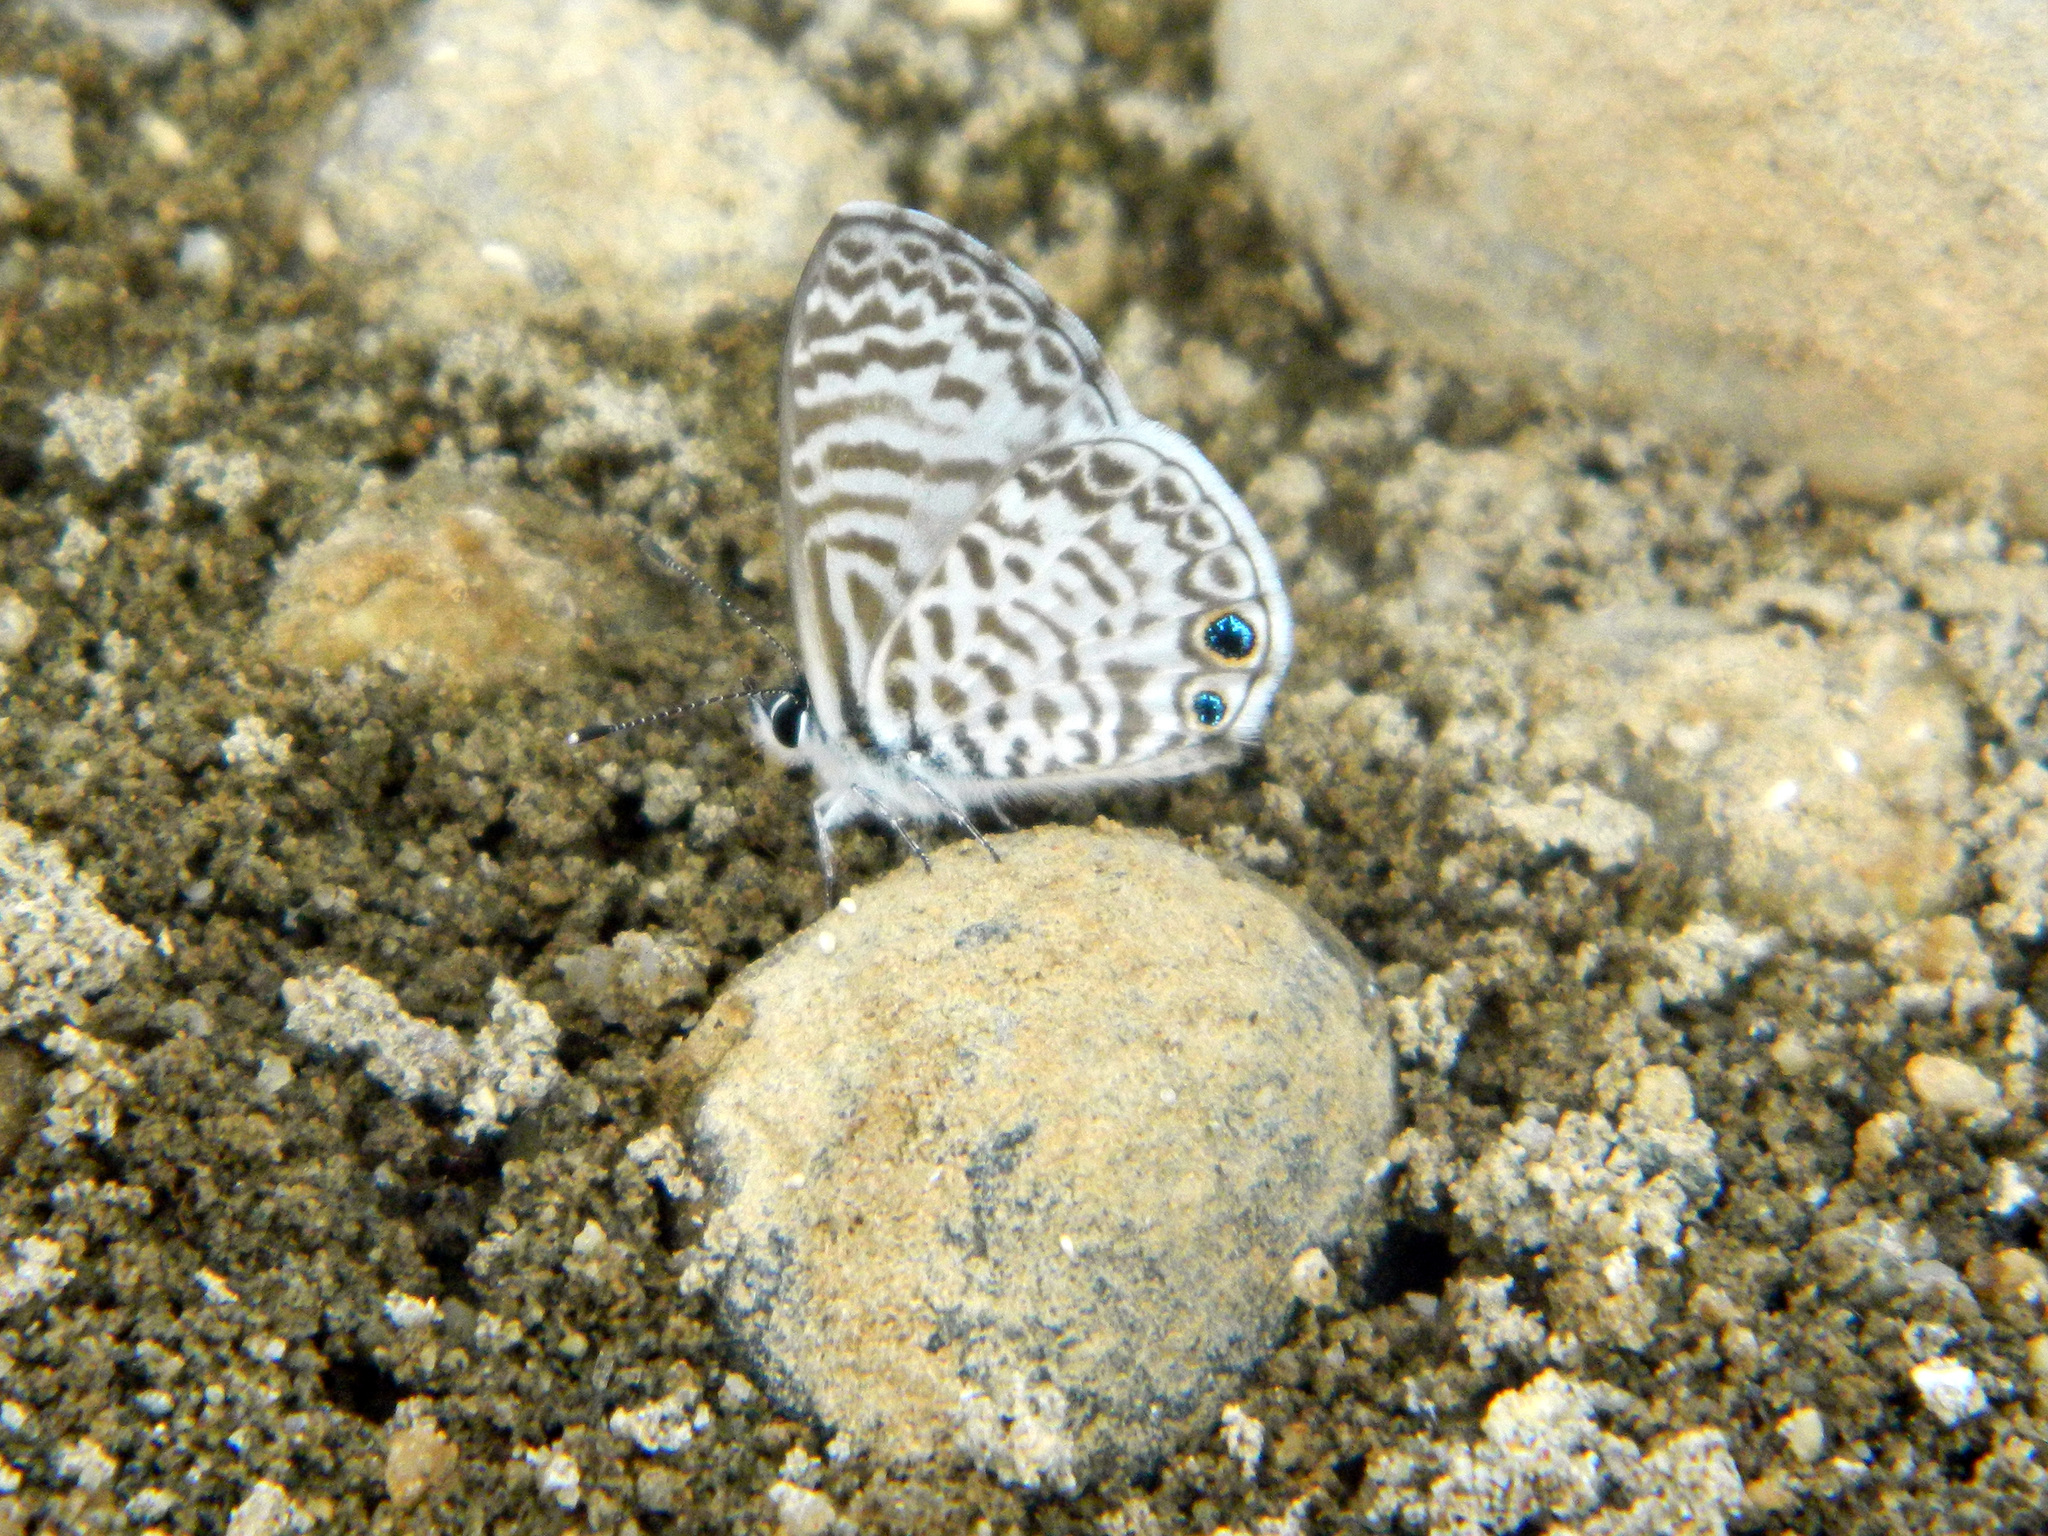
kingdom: Animalia
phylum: Arthropoda
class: Insecta
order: Lepidoptera
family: Lycaenidae
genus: Leptotes
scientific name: Leptotes cassius
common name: Cassius blue
